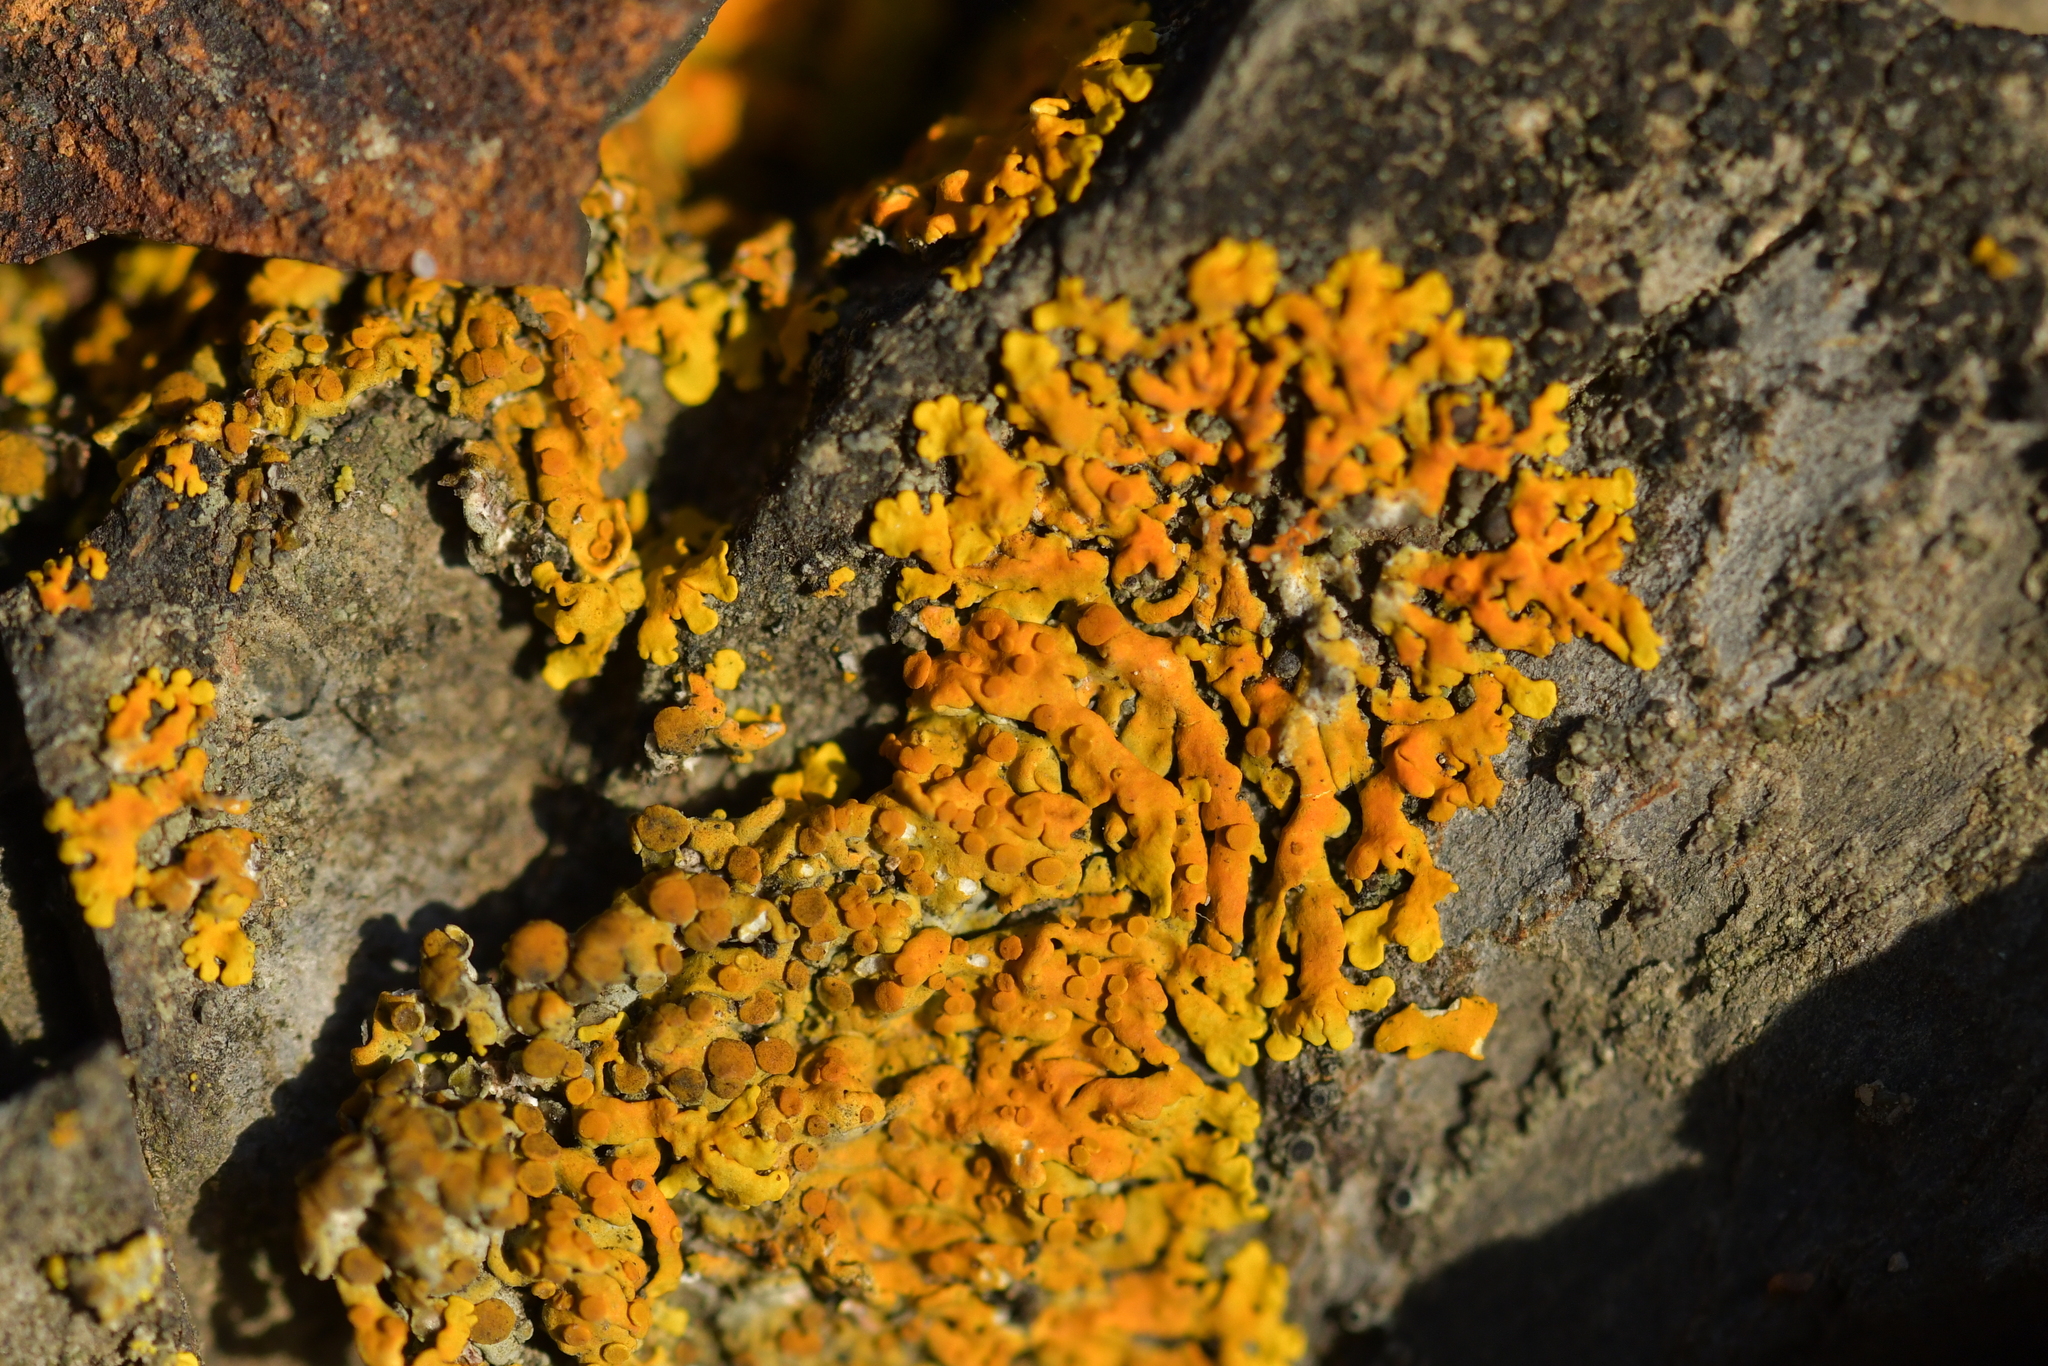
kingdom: Fungi
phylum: Ascomycota
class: Lecanoromycetes
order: Teloschistales
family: Teloschistaceae
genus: Xanthoria
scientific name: Xanthoria parietina
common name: Common orange lichen
